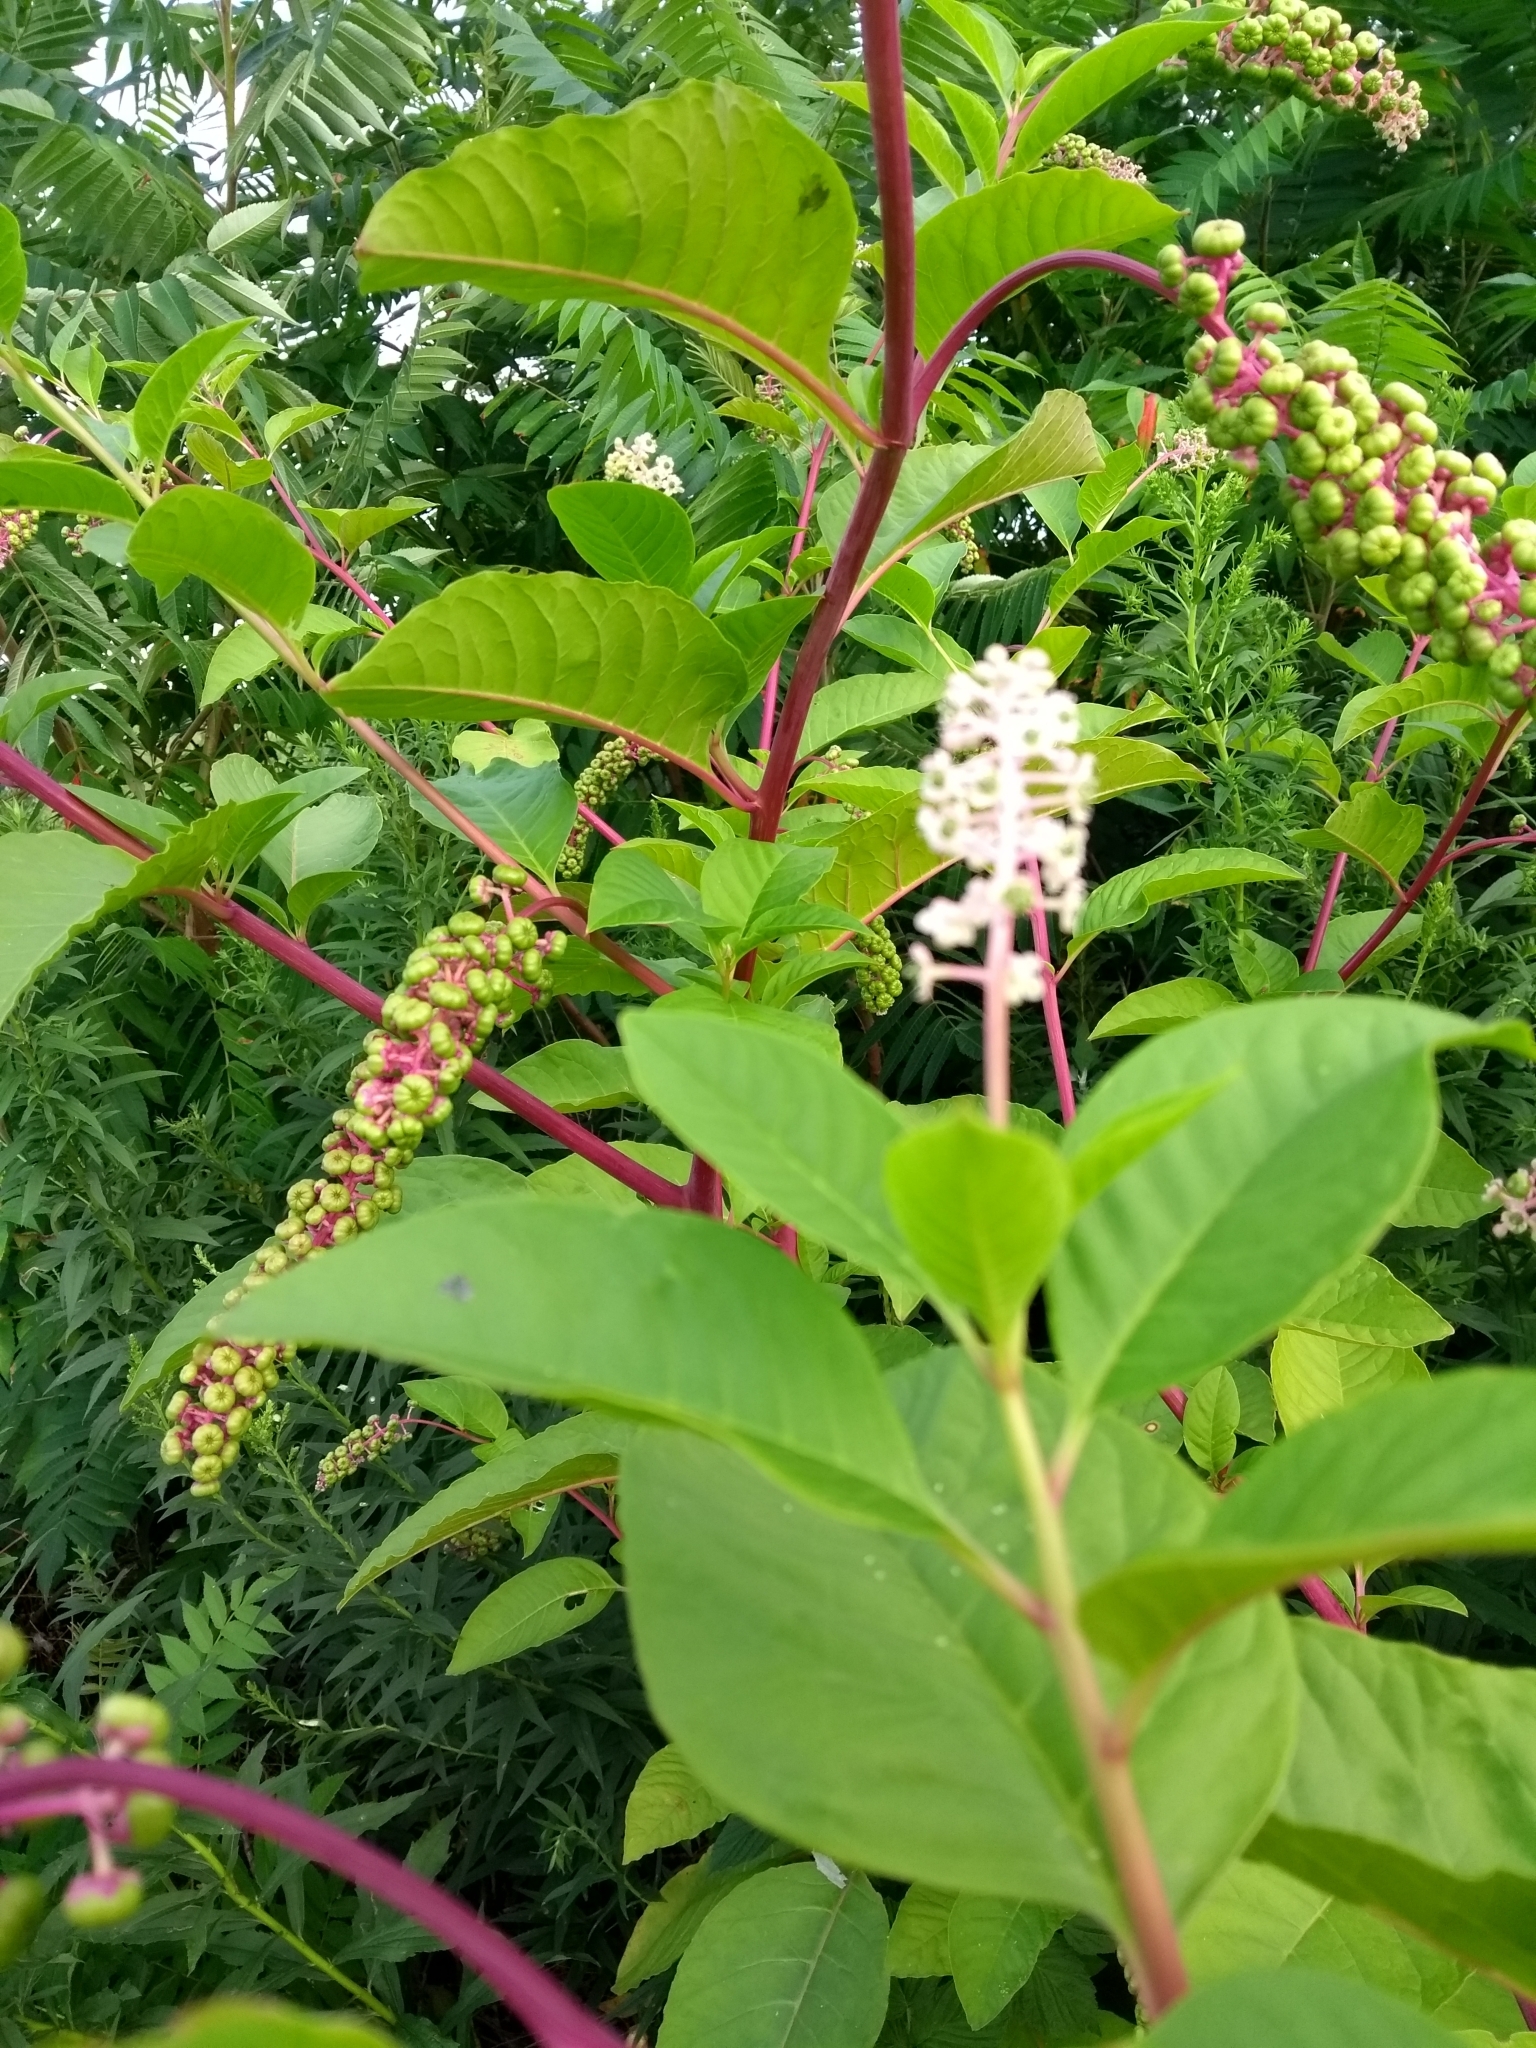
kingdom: Plantae
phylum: Tracheophyta
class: Magnoliopsida
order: Caryophyllales
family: Phytolaccaceae
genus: Phytolacca
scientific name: Phytolacca americana
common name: American pokeweed
